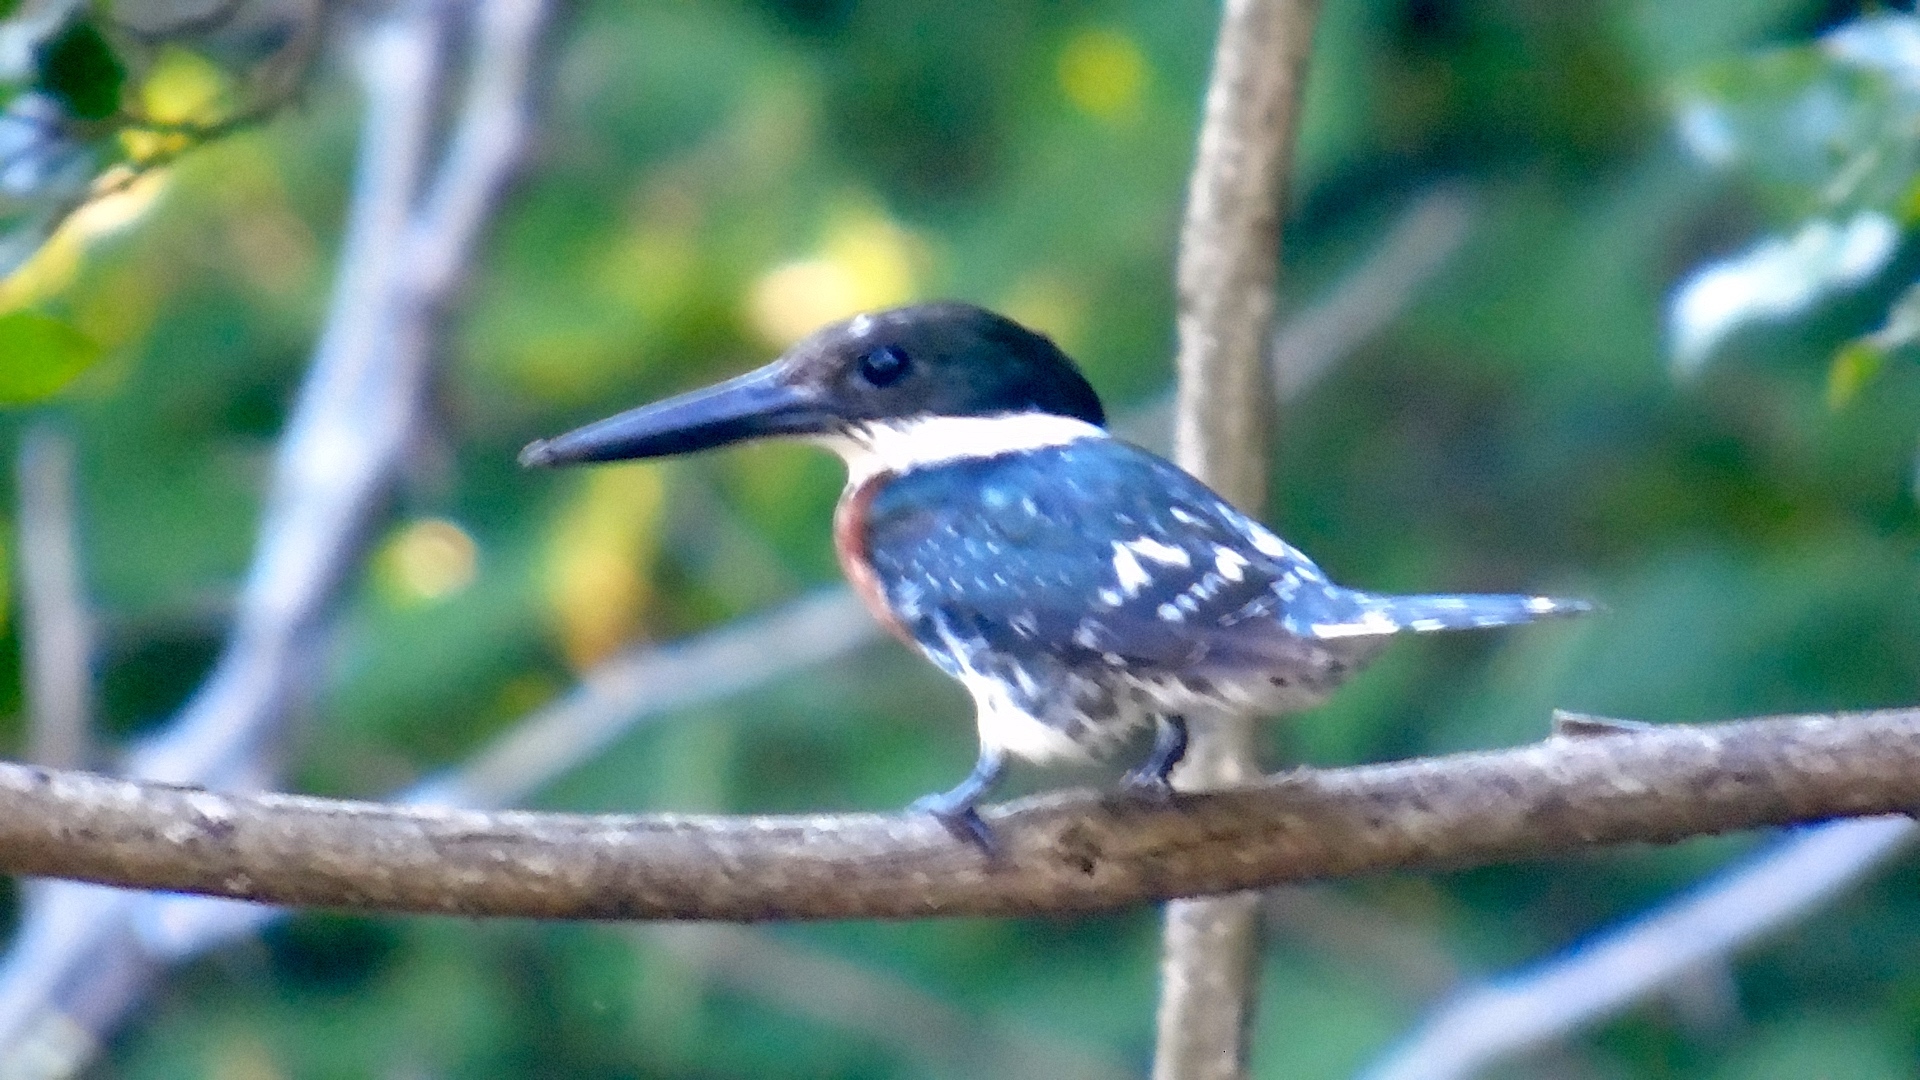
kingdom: Animalia
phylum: Chordata
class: Aves
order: Coraciiformes
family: Alcedinidae
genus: Chloroceryle
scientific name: Chloroceryle americana
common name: Green kingfisher
